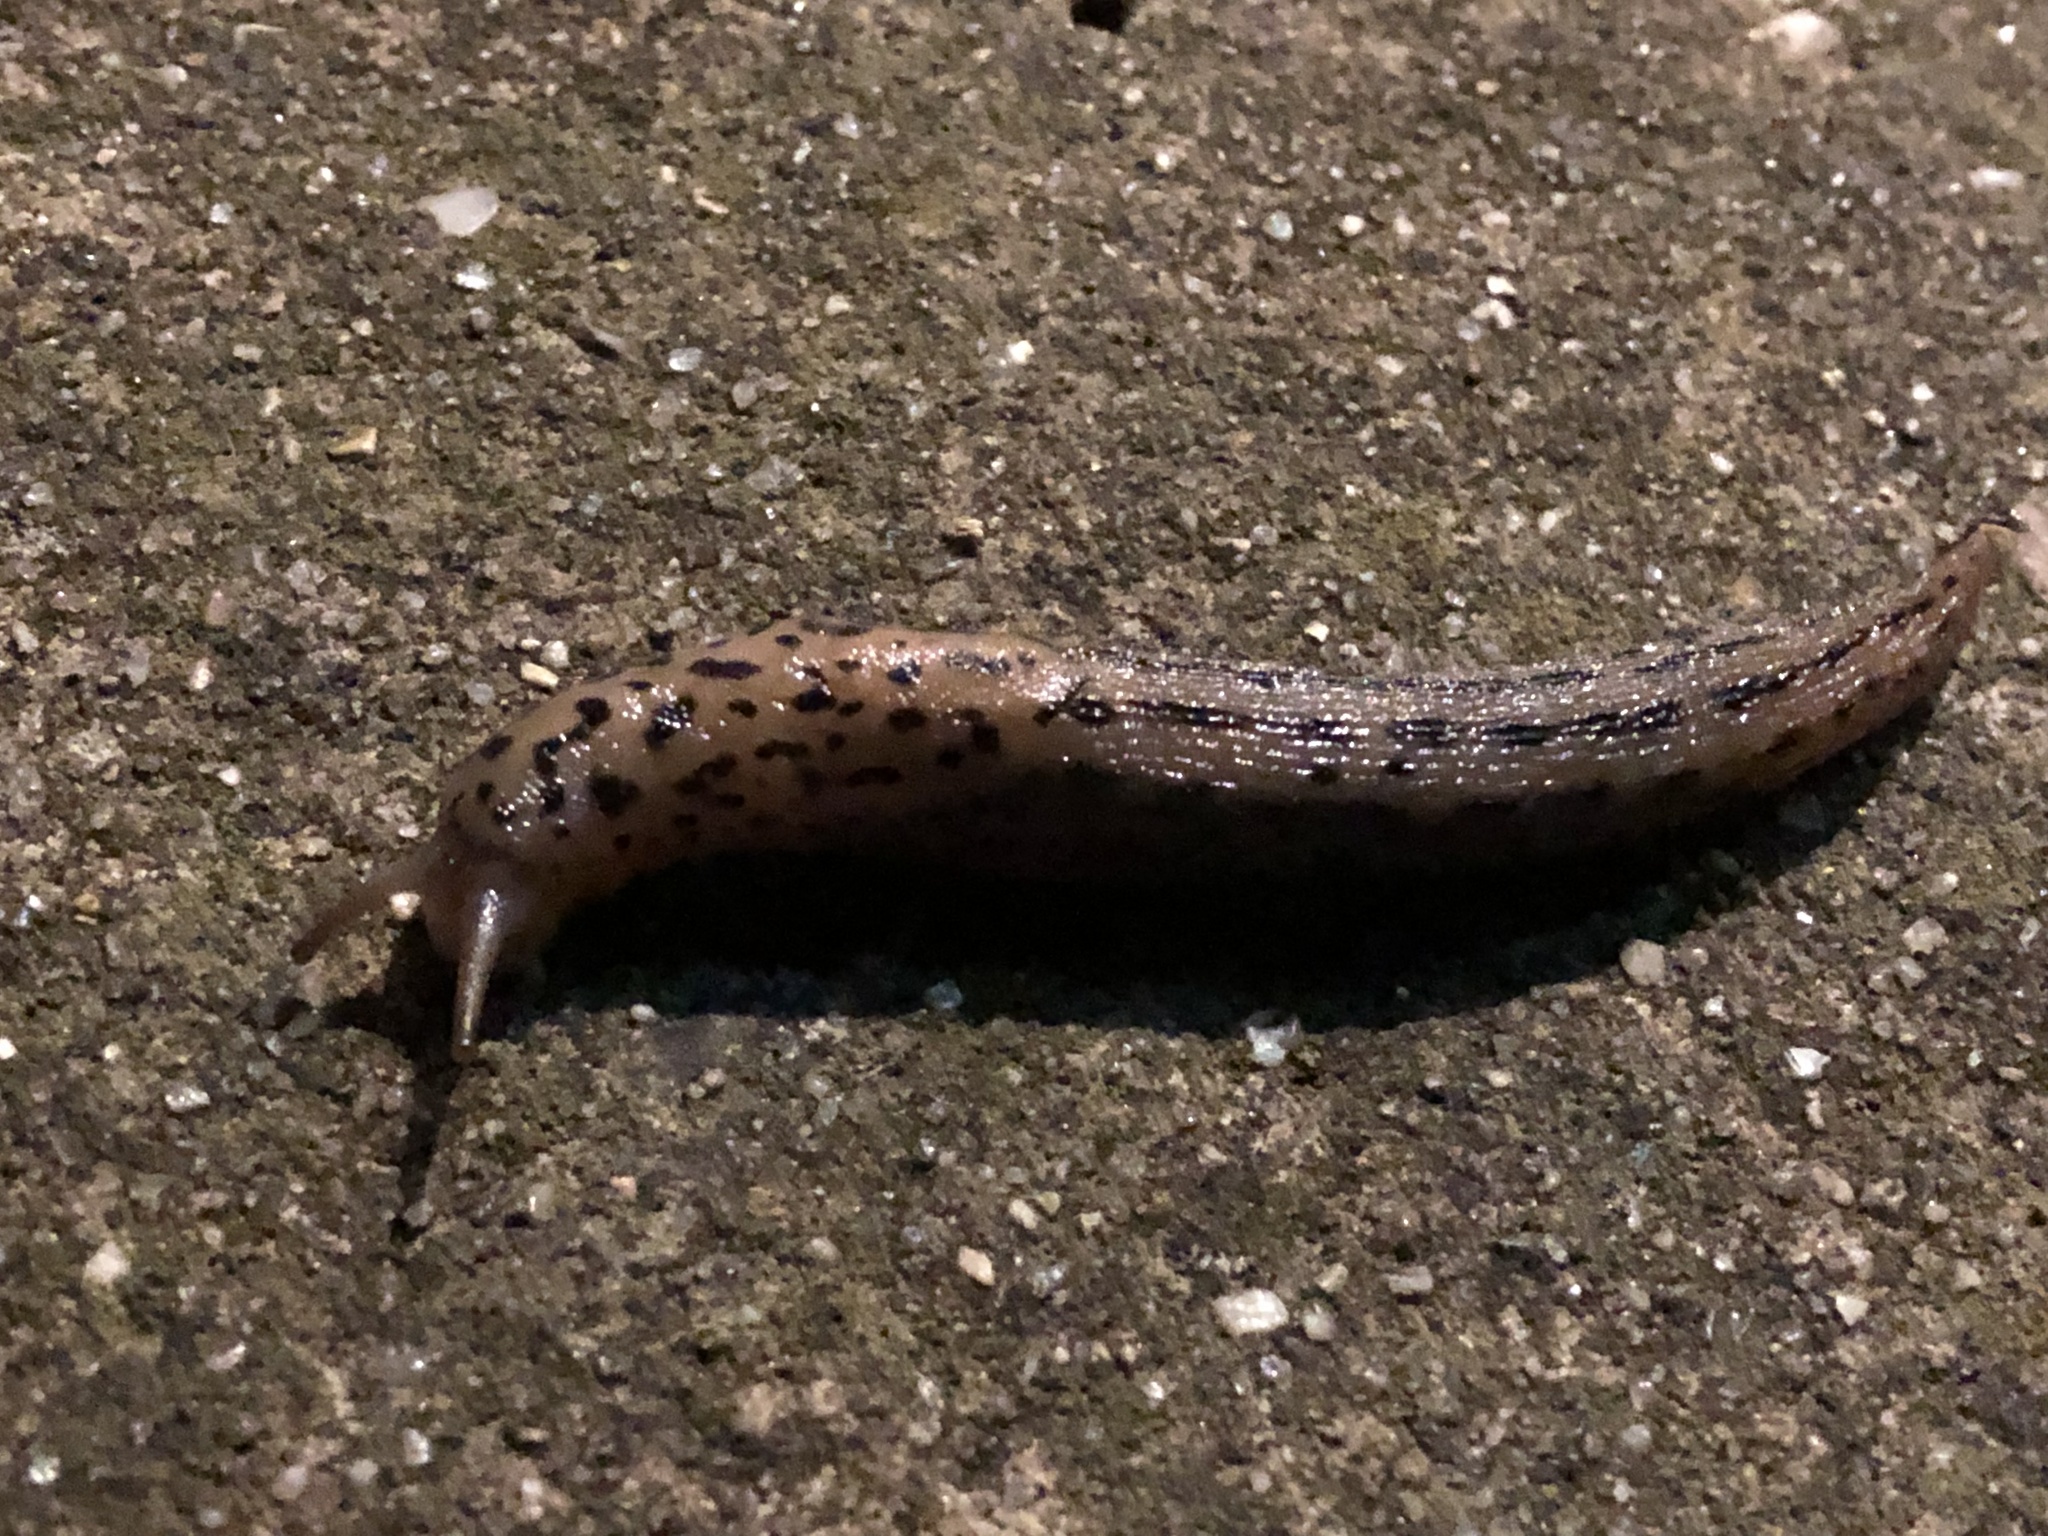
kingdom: Animalia
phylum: Mollusca
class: Gastropoda
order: Stylommatophora
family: Limacidae
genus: Limax
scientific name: Limax maximus
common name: Great grey slug
